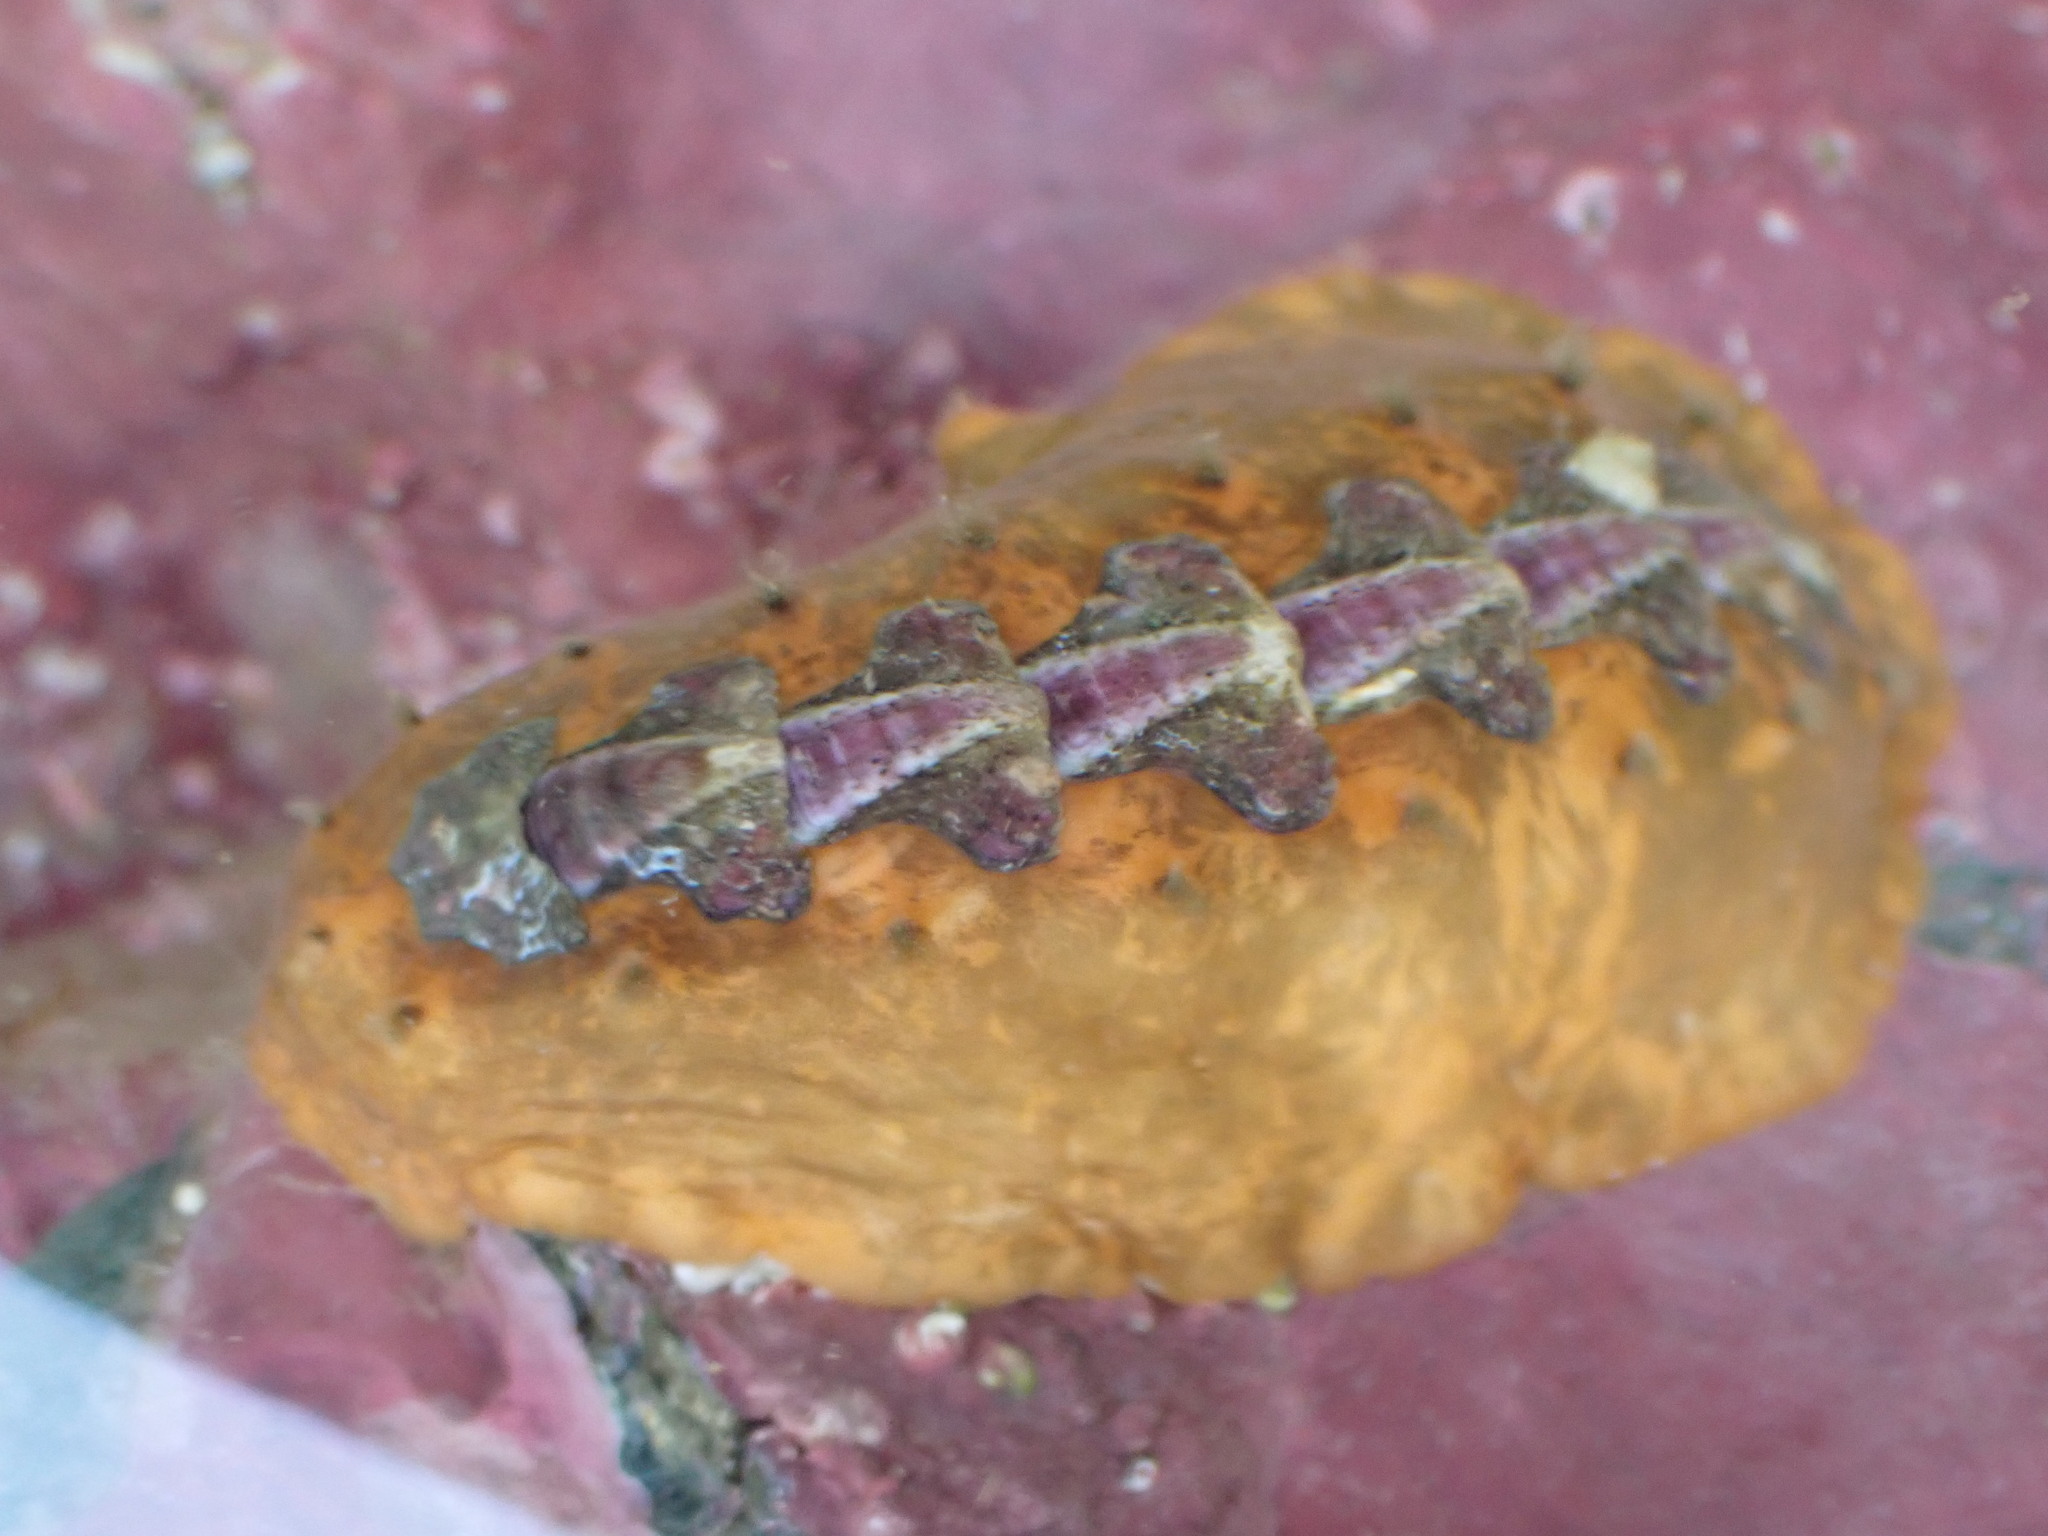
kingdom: Animalia
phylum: Mollusca
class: Polyplacophora
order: Chitonida
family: Acanthochitonidae
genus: Notoplax
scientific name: Notoplax violacea
